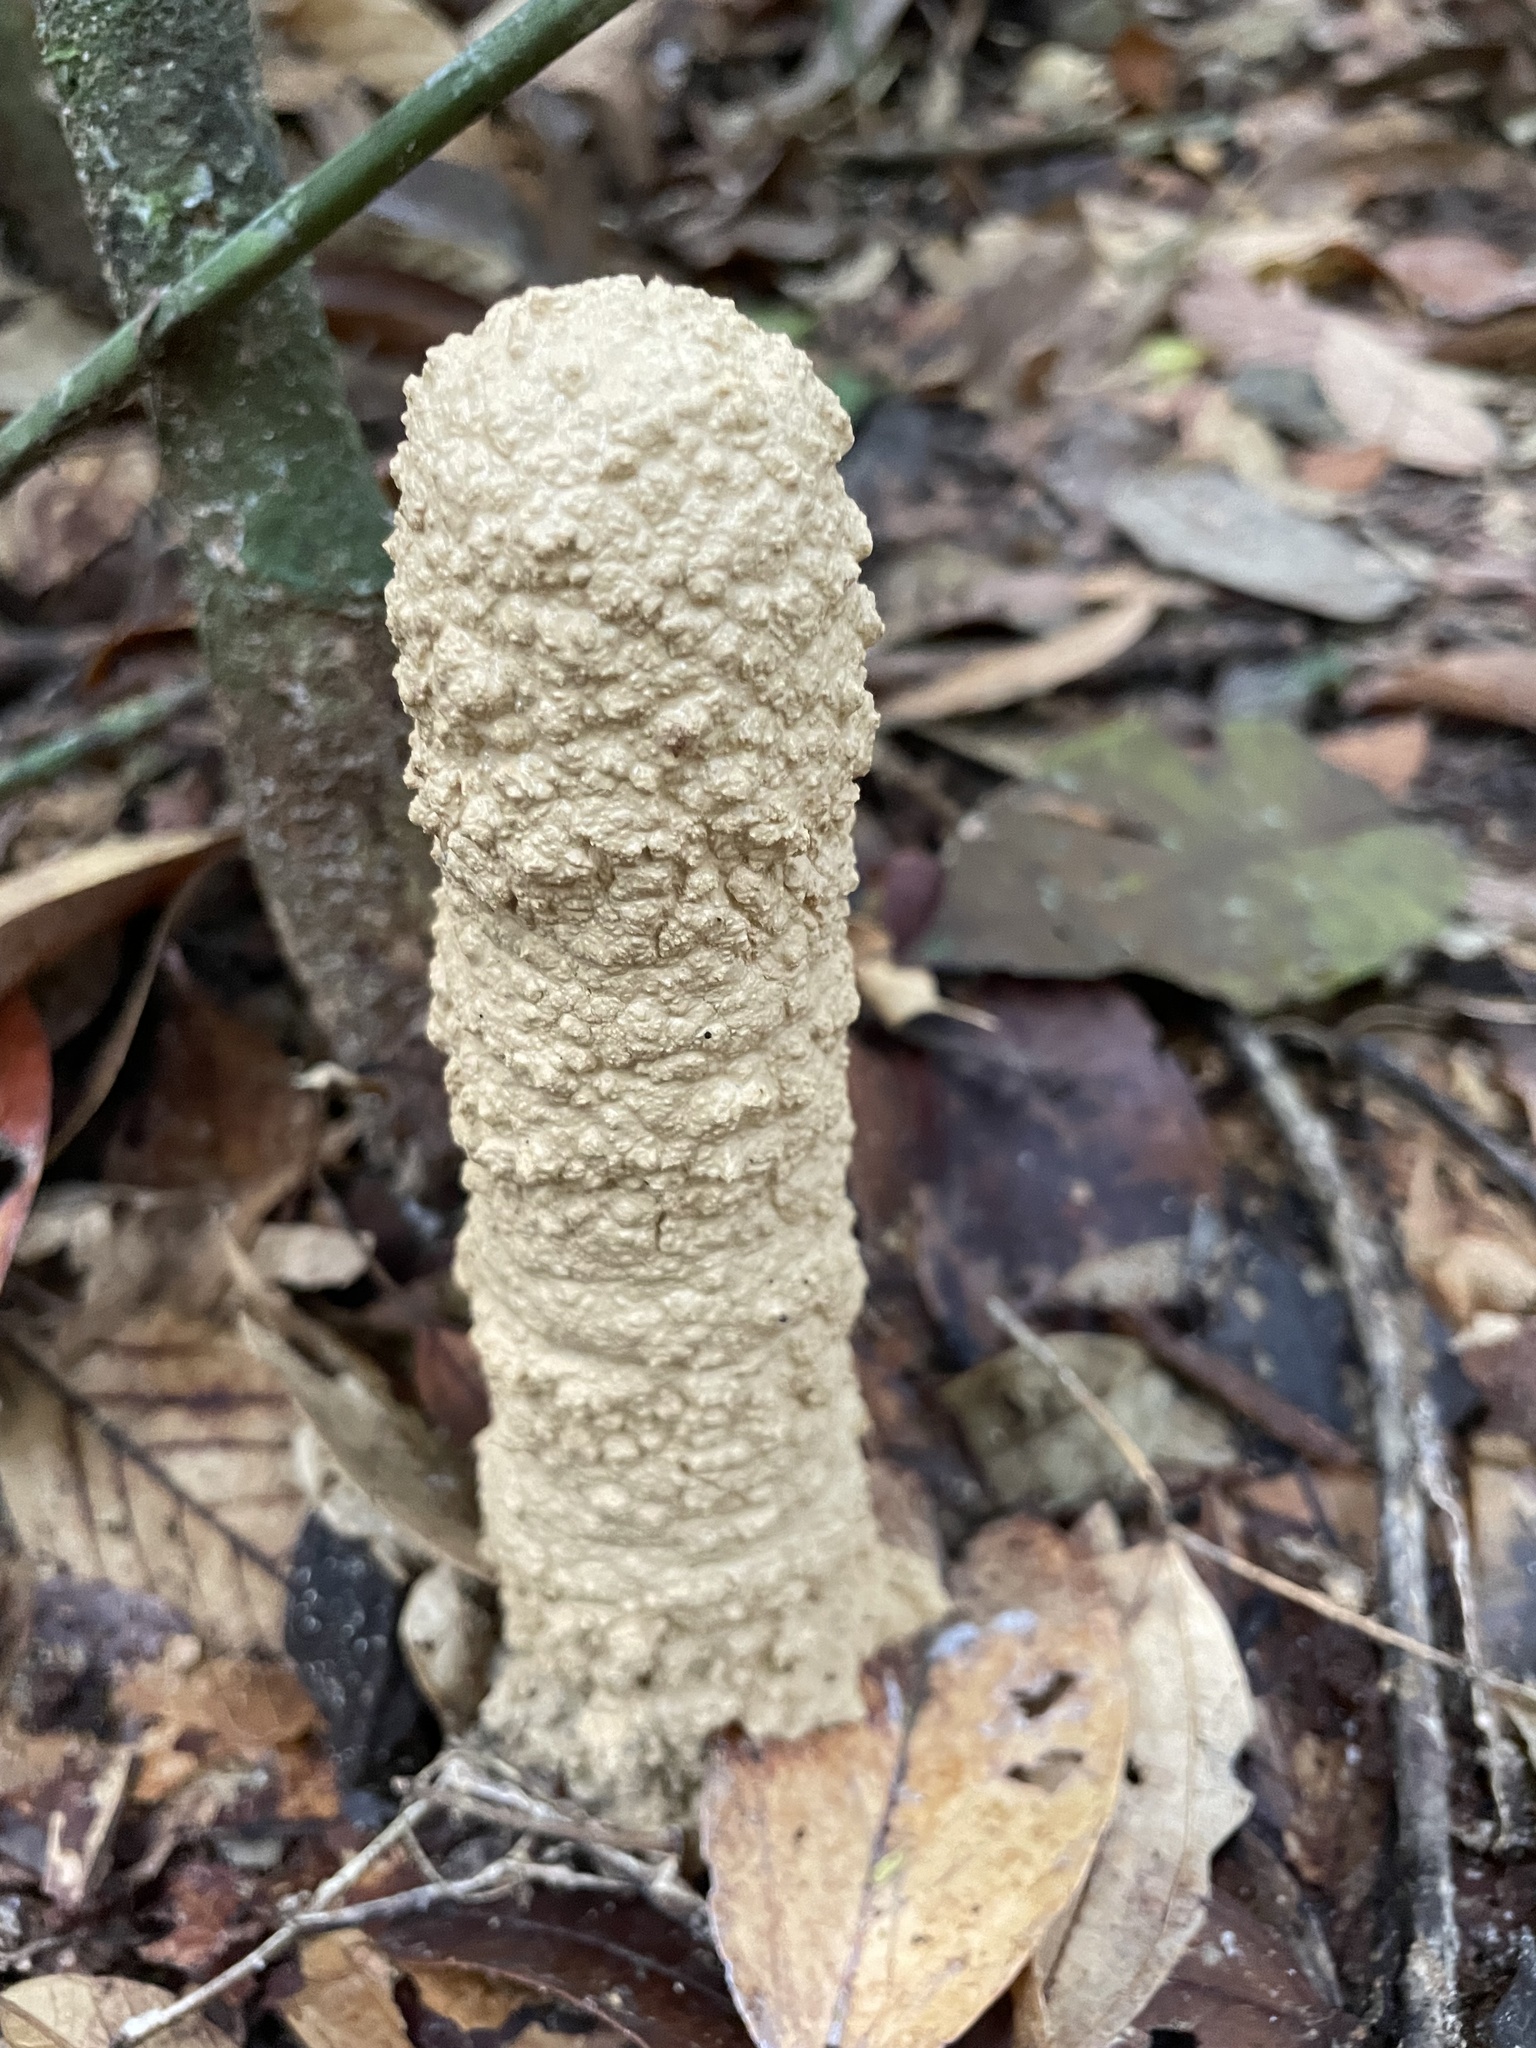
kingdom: Animalia
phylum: Arthropoda
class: Insecta
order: Hemiptera
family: Cicadidae
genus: Guyalna
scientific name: Guyalna chlorogena
